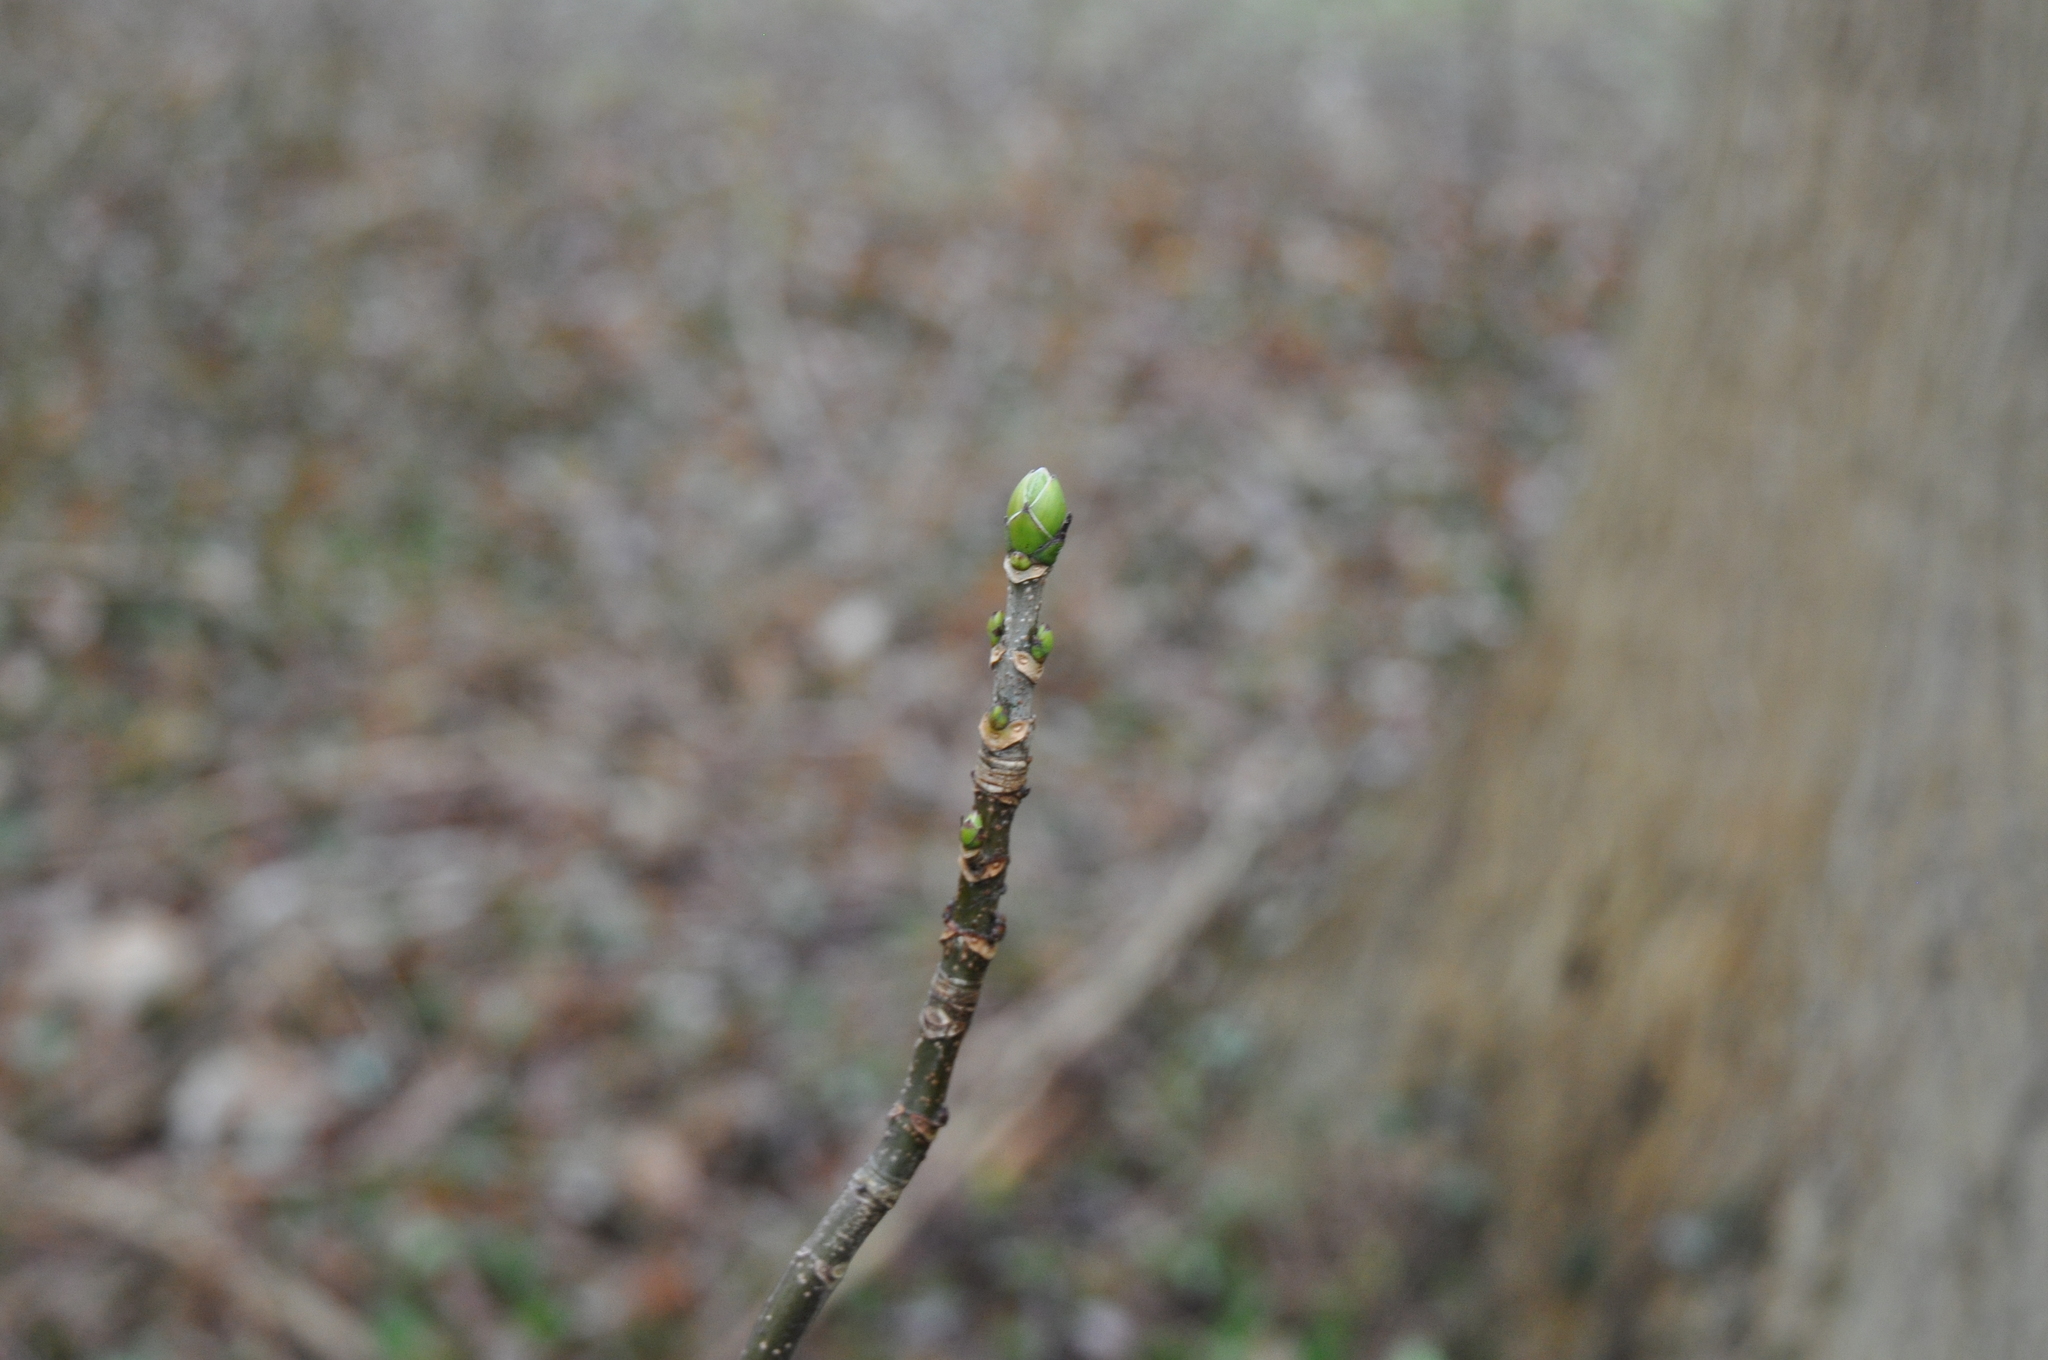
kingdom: Plantae
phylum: Tracheophyta
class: Magnoliopsida
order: Sapindales
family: Sapindaceae
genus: Acer
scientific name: Acer pseudoplatanus
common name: Sycamore
